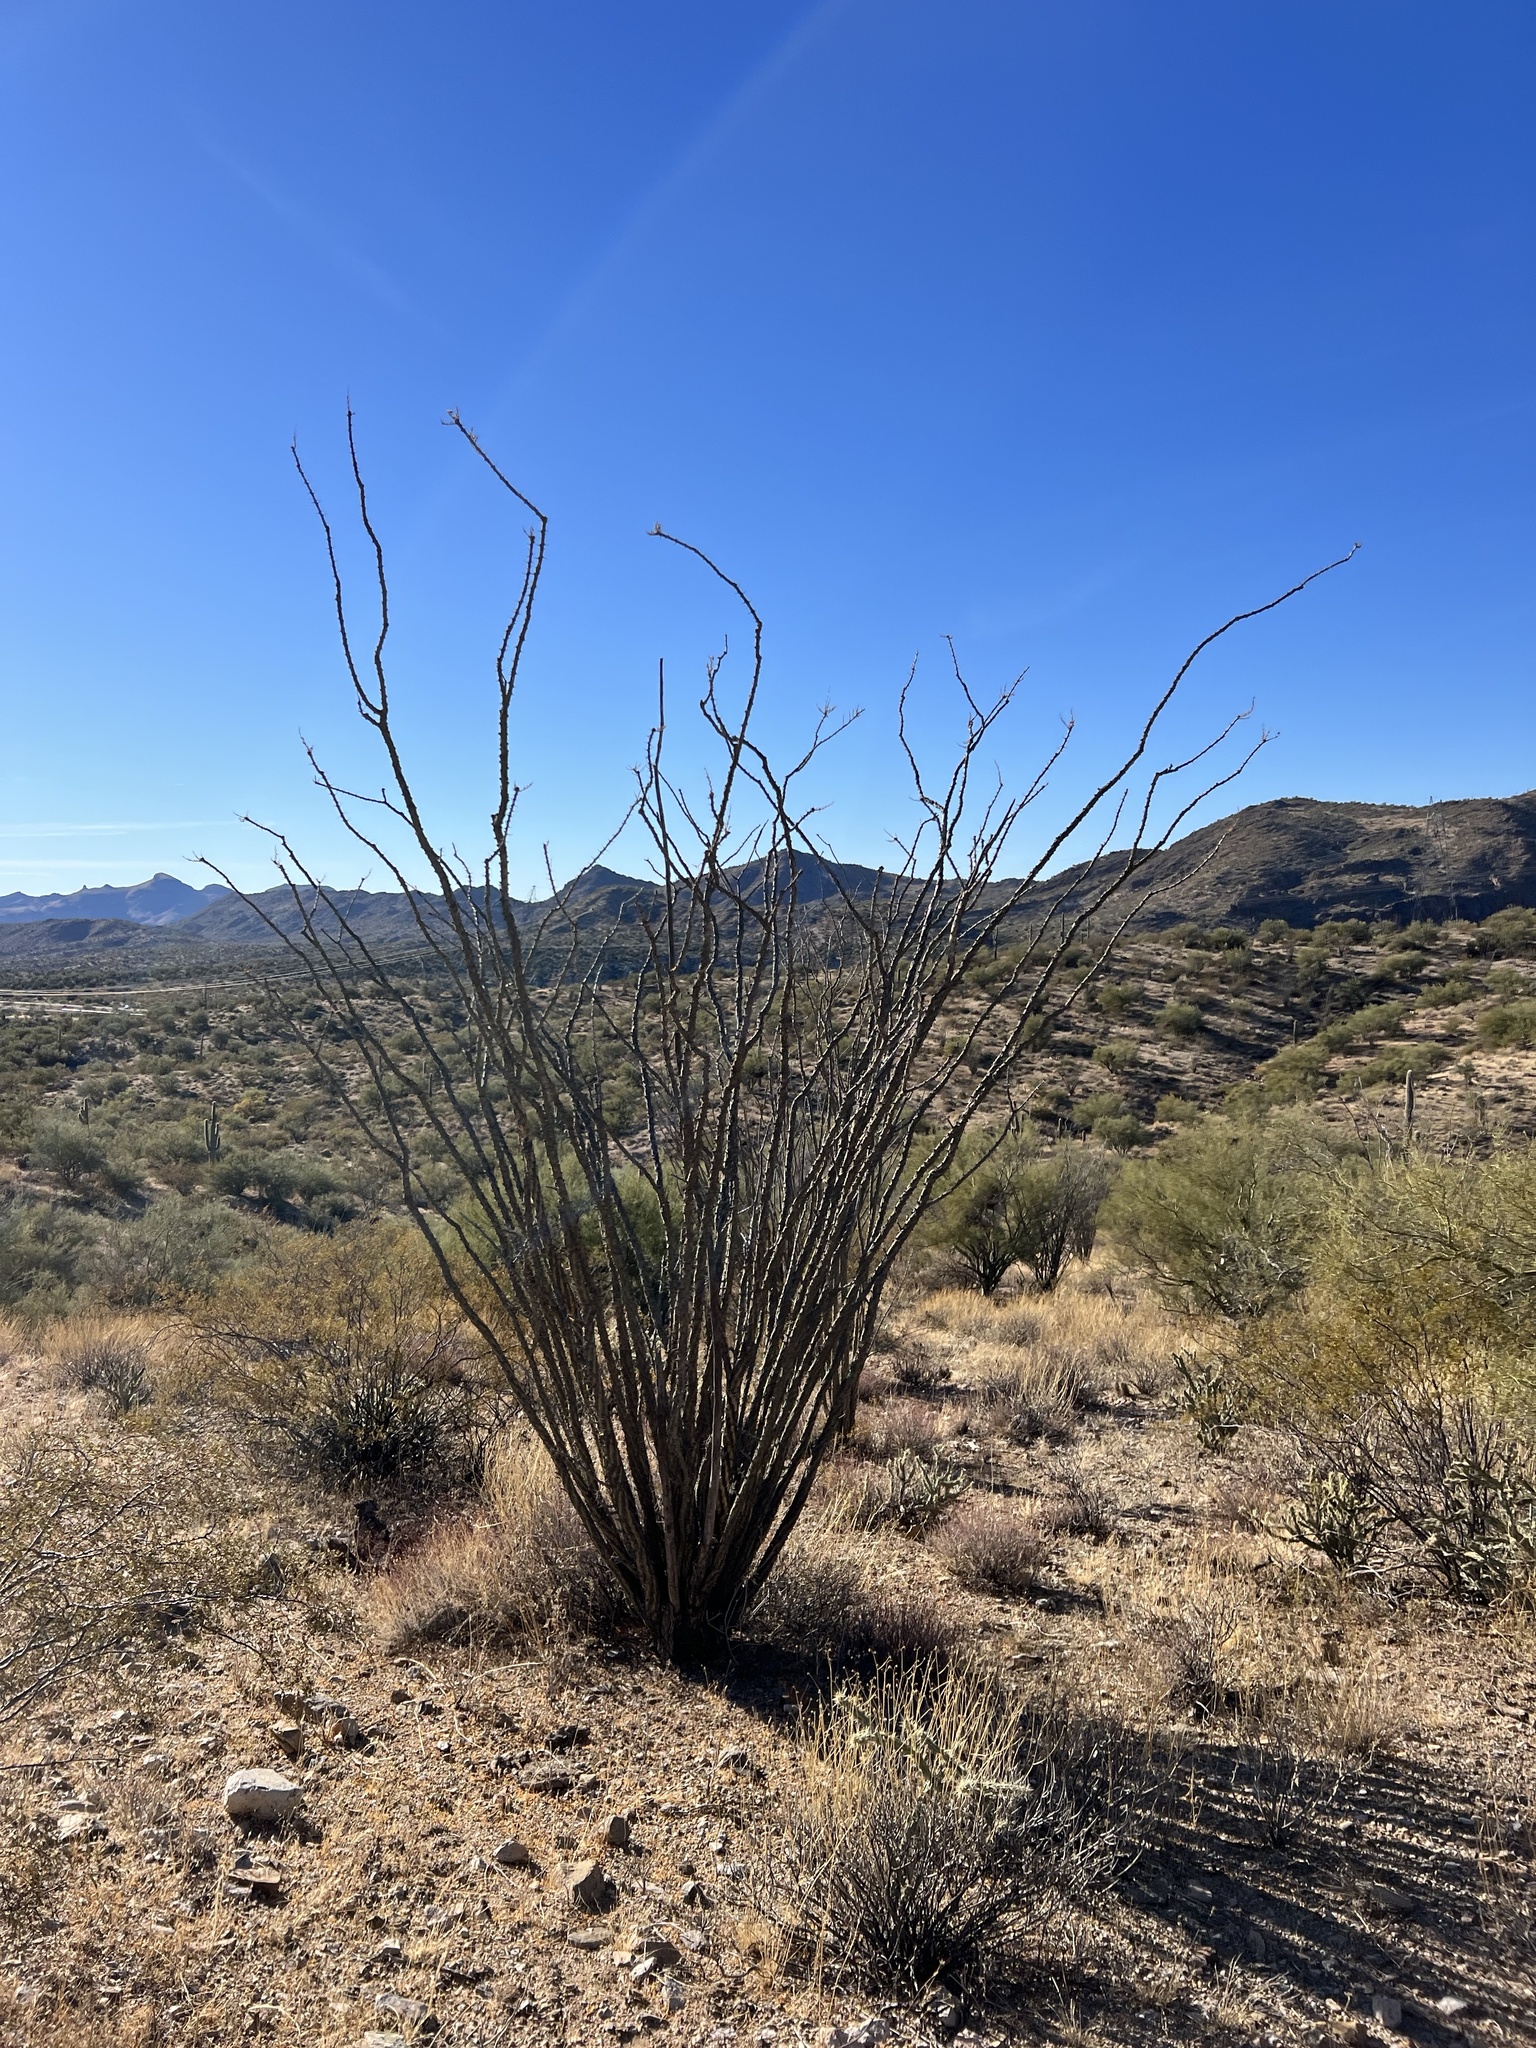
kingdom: Plantae
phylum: Tracheophyta
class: Magnoliopsida
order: Ericales
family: Fouquieriaceae
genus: Fouquieria
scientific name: Fouquieria splendens
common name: Vine-cactus
